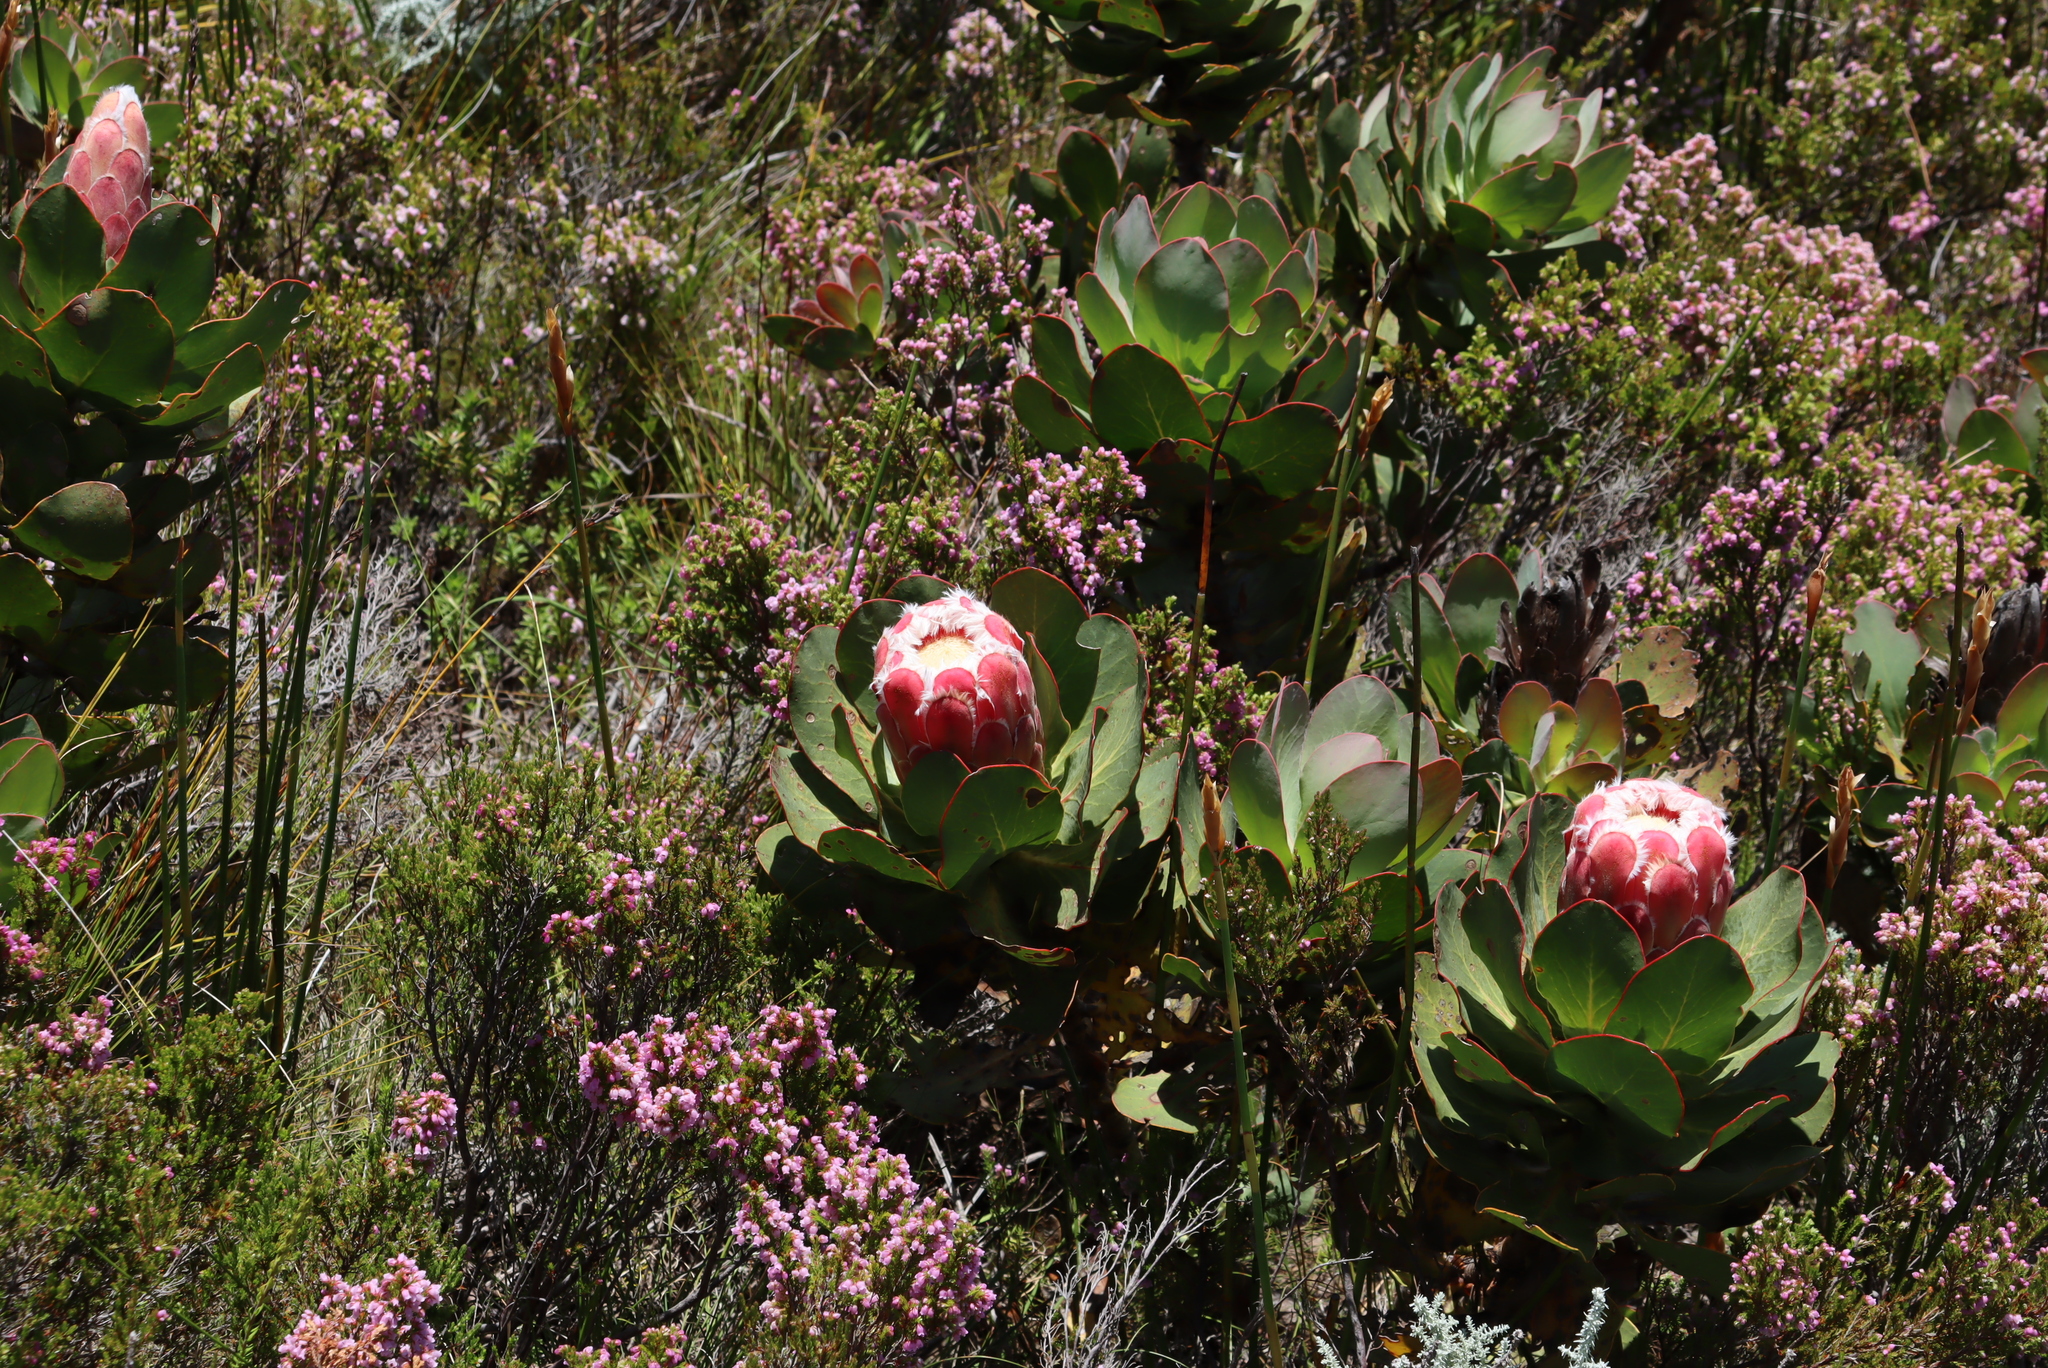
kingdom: Plantae
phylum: Tracheophyta
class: Magnoliopsida
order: Proteales
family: Proteaceae
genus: Protea
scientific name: Protea grandiceps
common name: Red sugarbush
